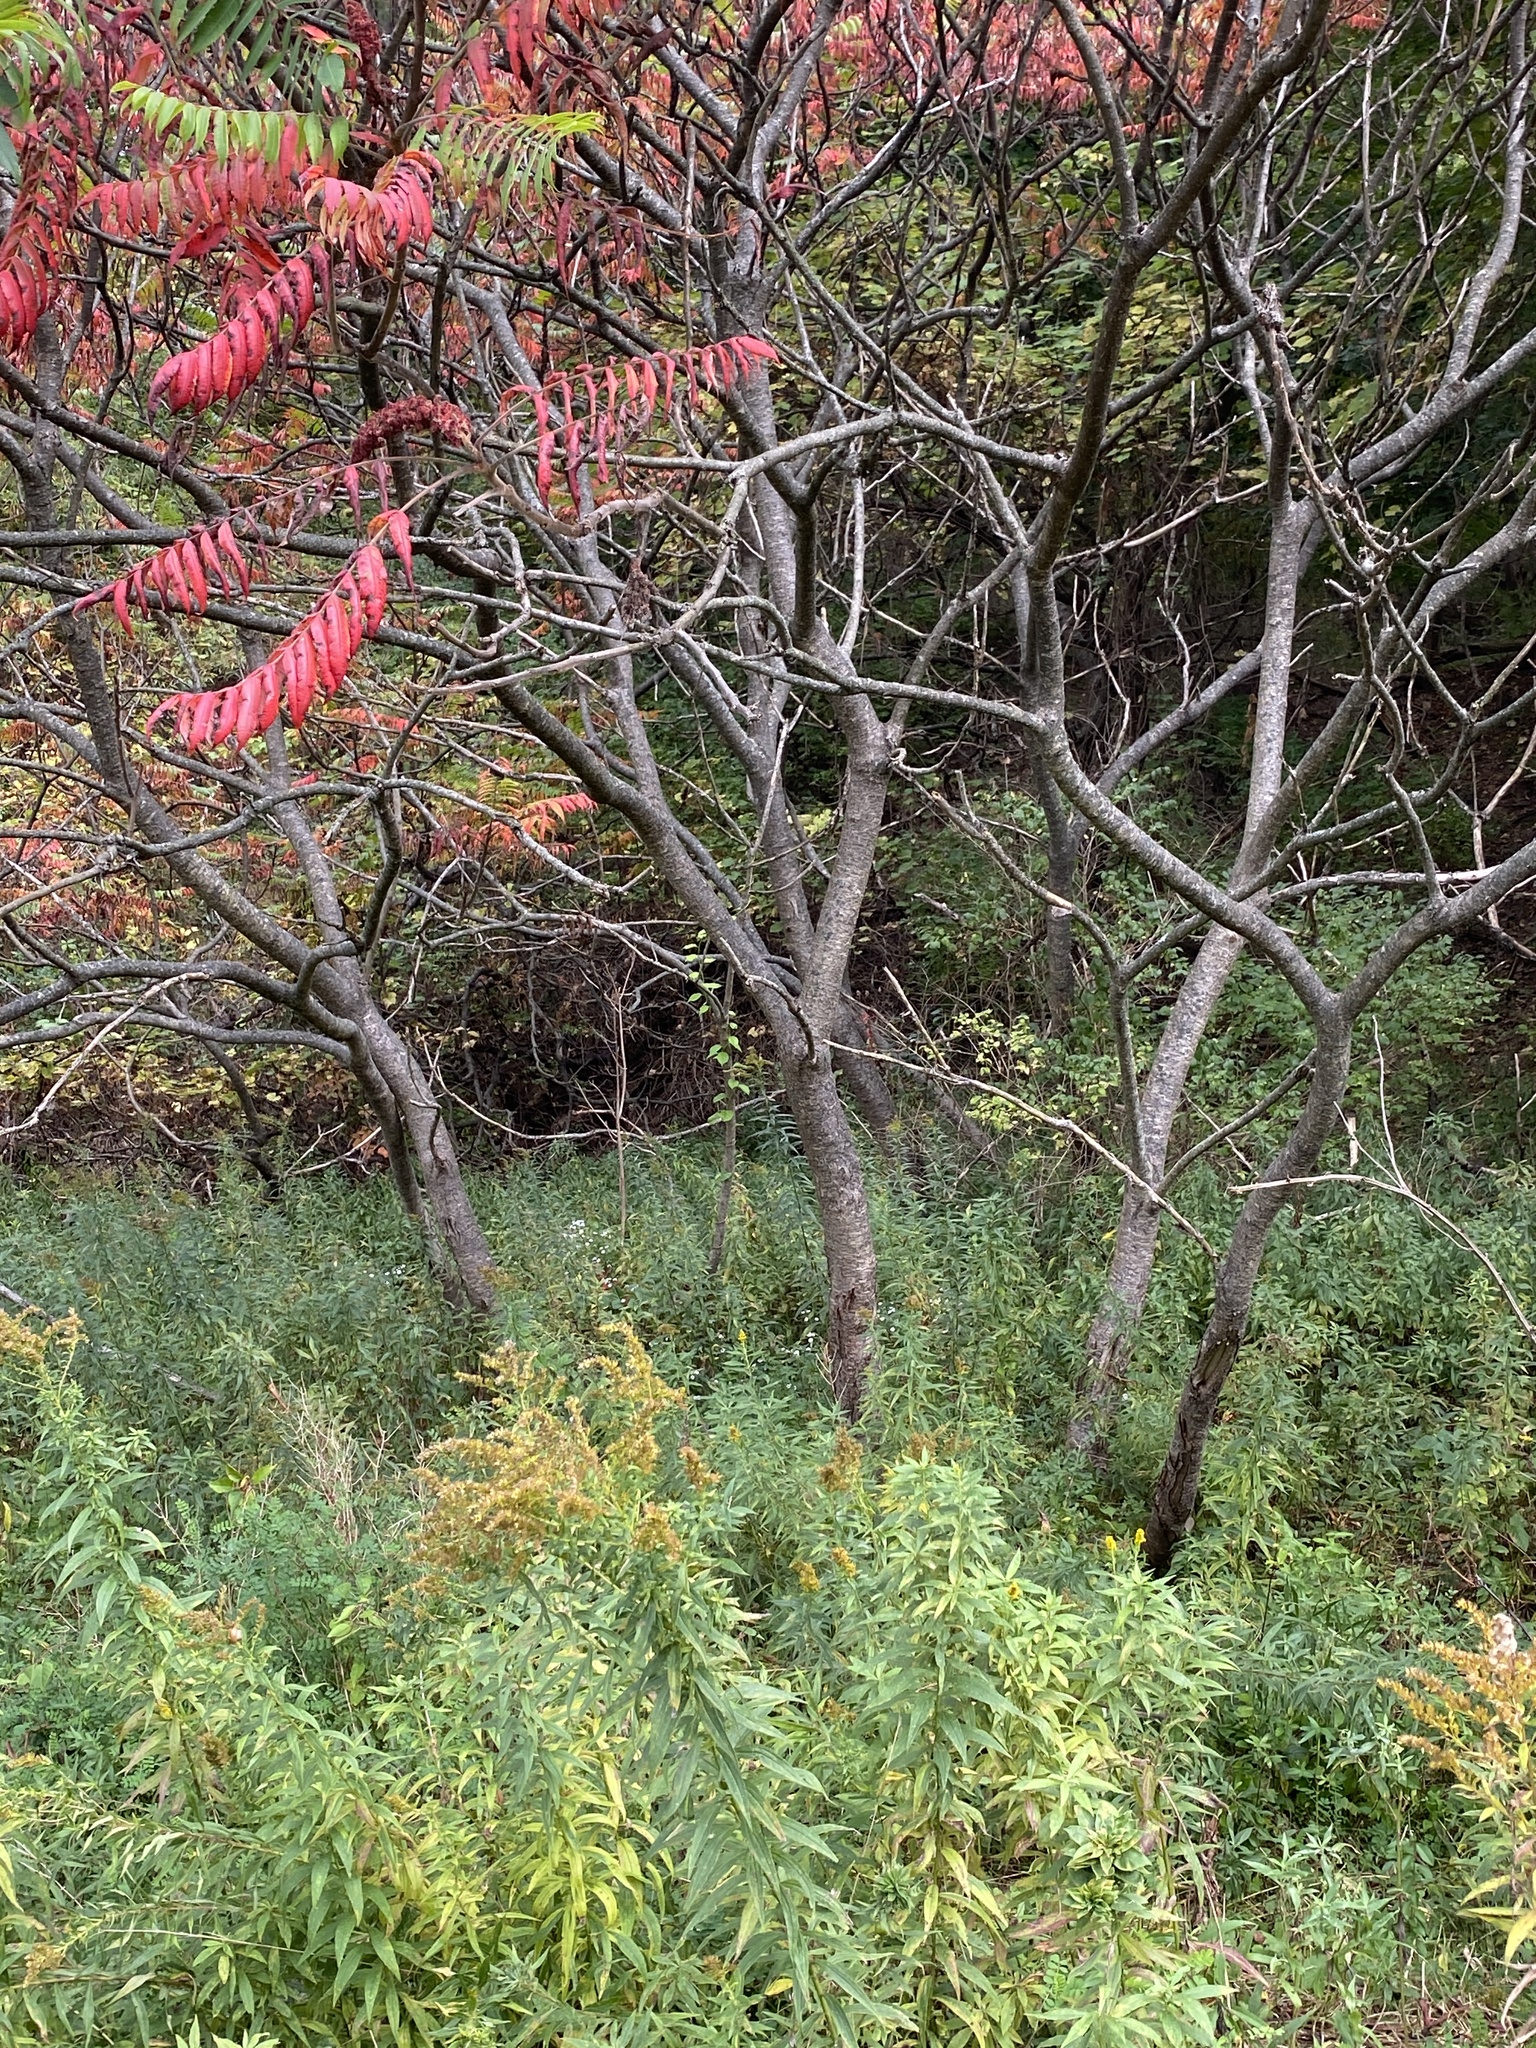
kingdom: Plantae
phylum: Tracheophyta
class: Magnoliopsida
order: Sapindales
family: Anacardiaceae
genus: Rhus
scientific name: Rhus typhina
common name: Staghorn sumac
